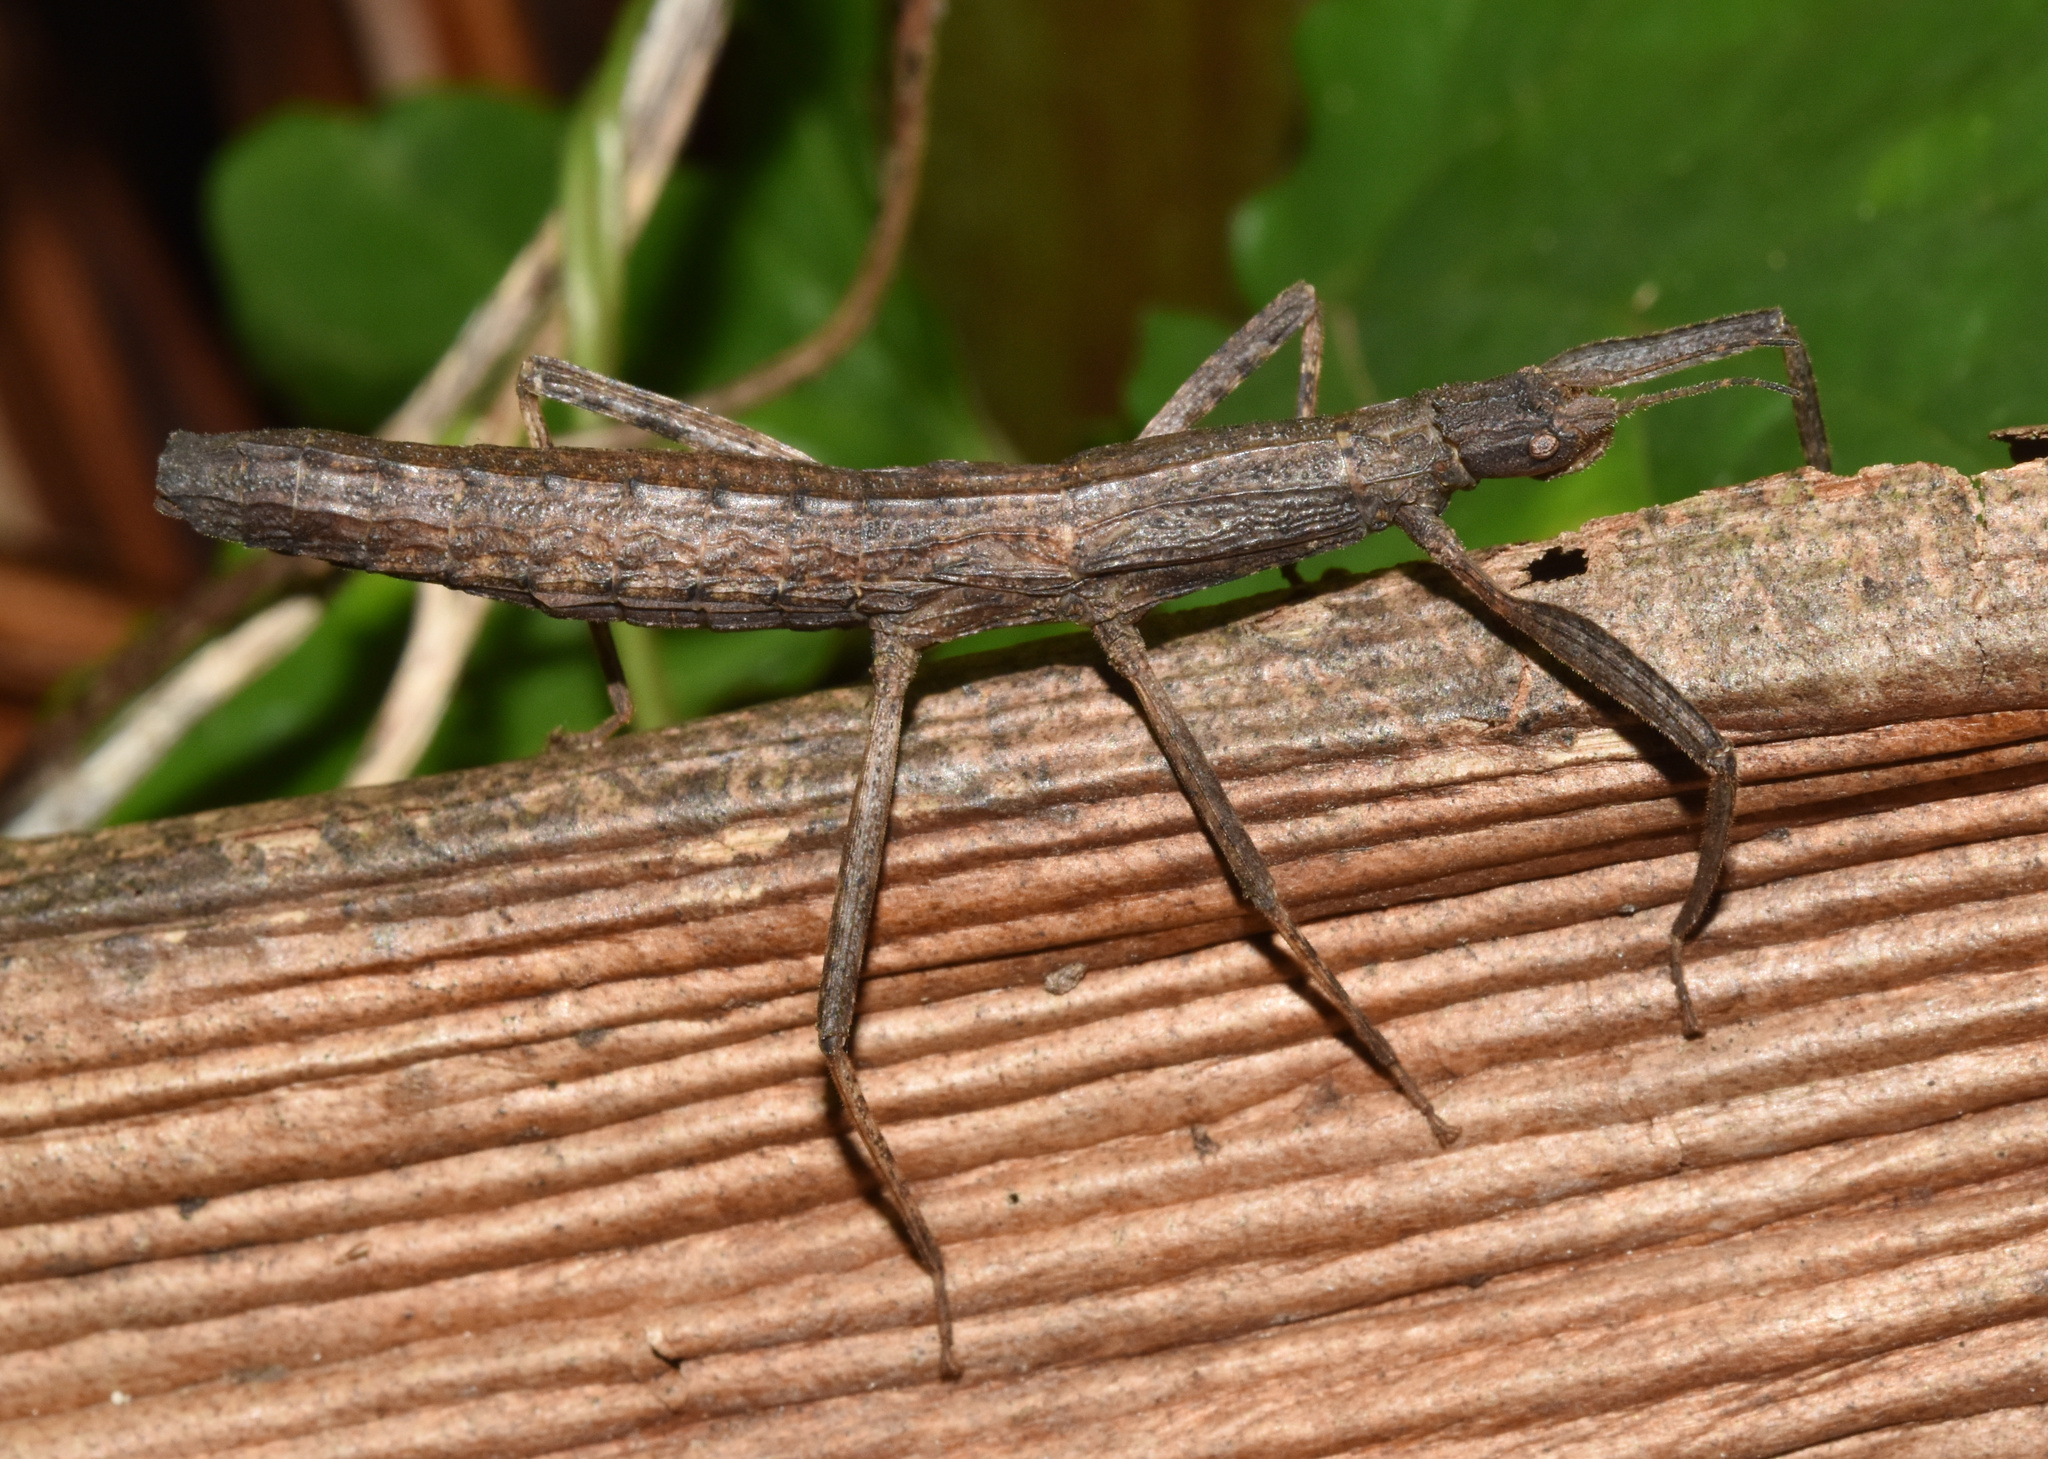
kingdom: Animalia
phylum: Arthropoda
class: Insecta
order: Phasmida
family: Phasmatidae
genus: Hemipachymorpha
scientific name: Hemipachymorpha omphale
